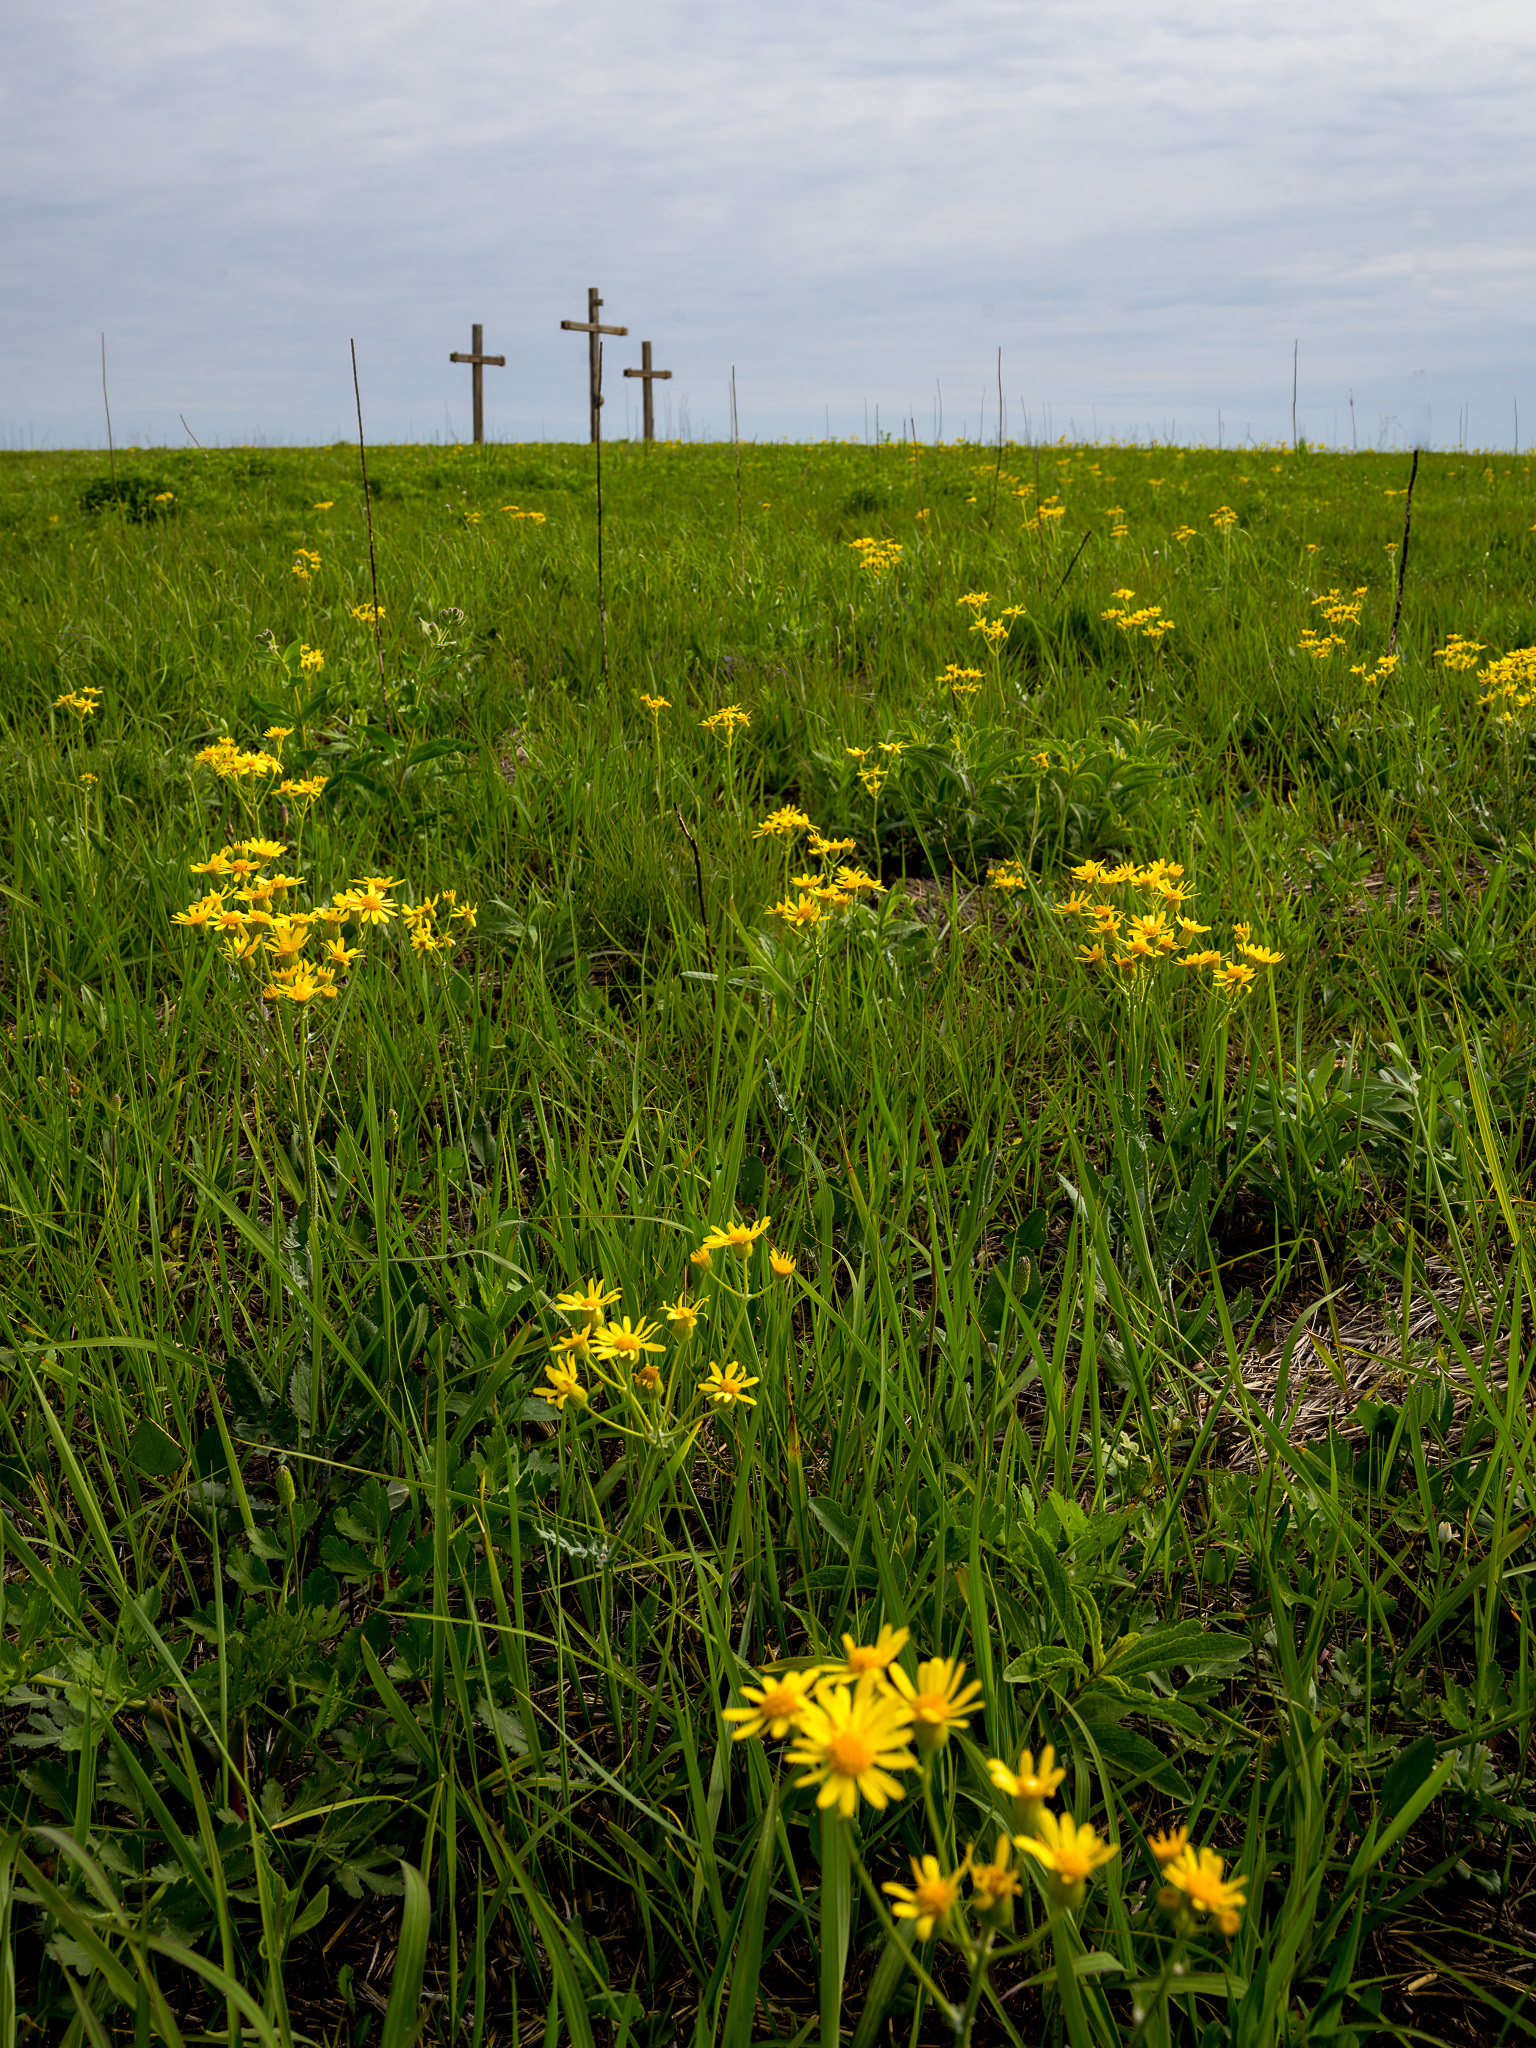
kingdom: Plantae
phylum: Tracheophyta
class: Magnoliopsida
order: Asterales
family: Asteraceae
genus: Packera
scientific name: Packera plattensis
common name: Prairie groundsel
